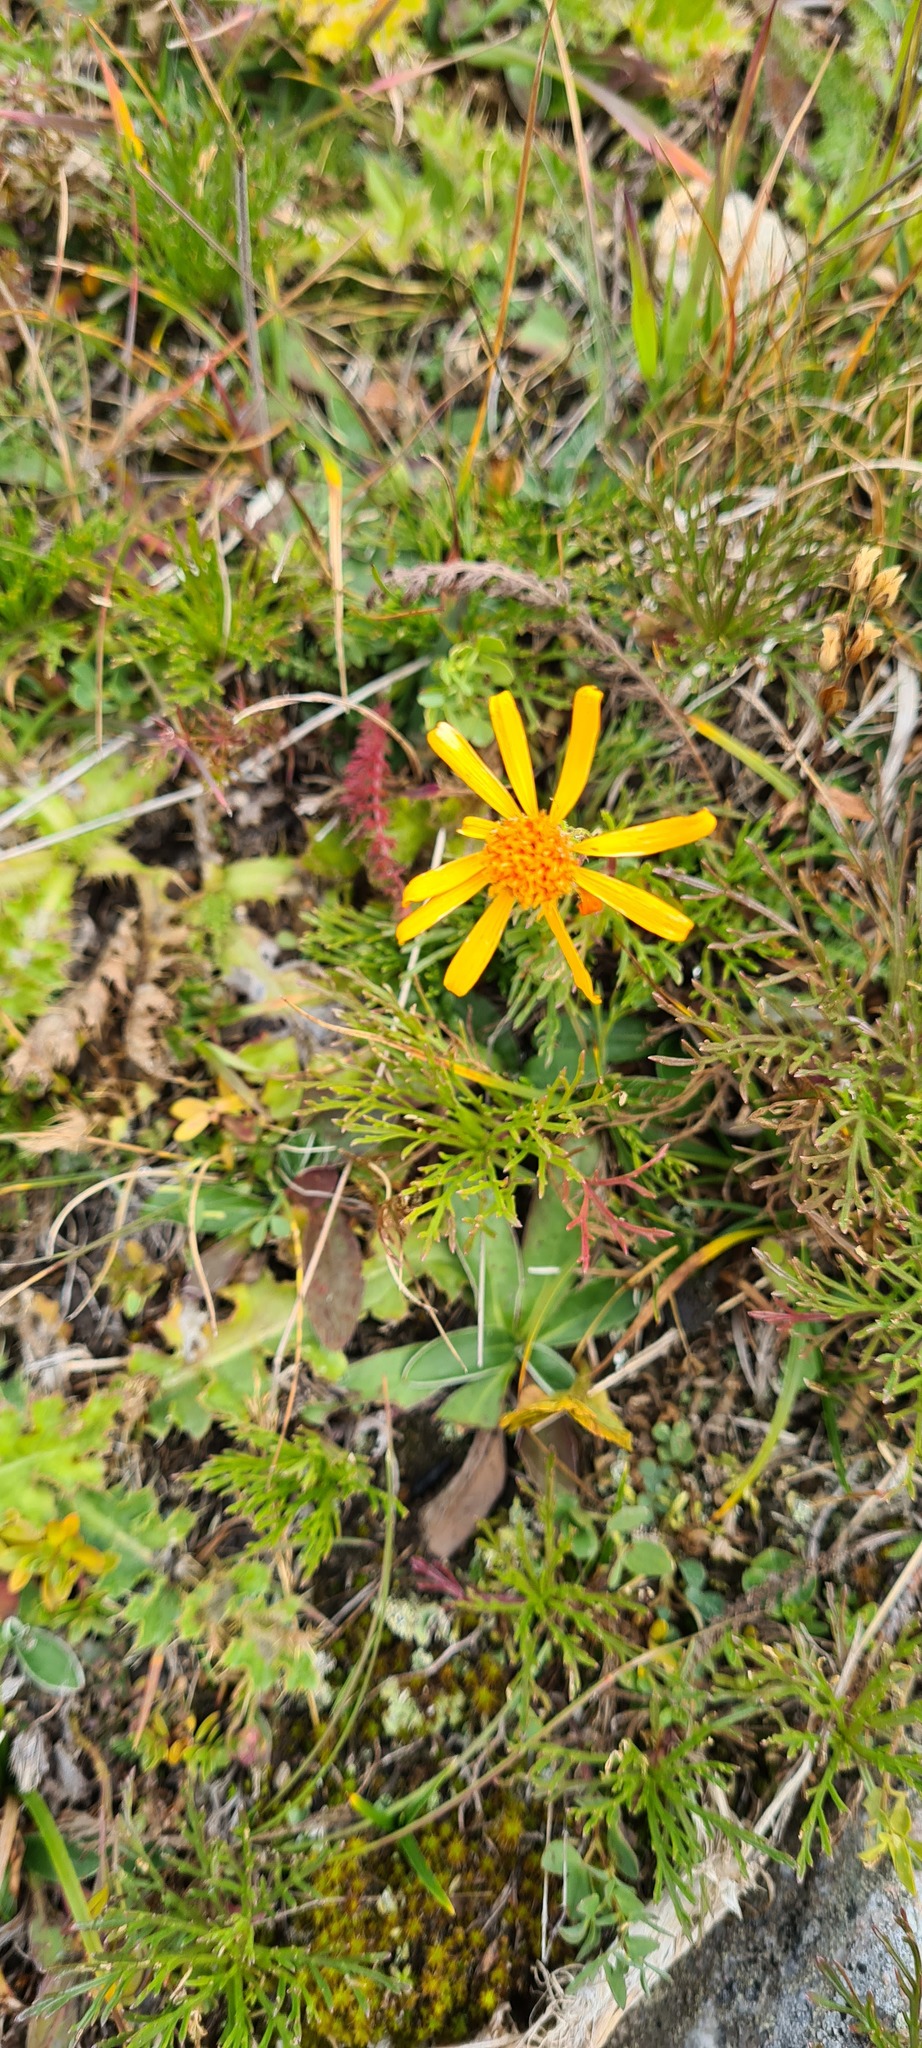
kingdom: Plantae
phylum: Tracheophyta
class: Magnoliopsida
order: Asterales
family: Asteraceae
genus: Jacobaea
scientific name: Jacobaea abrotanifolia
